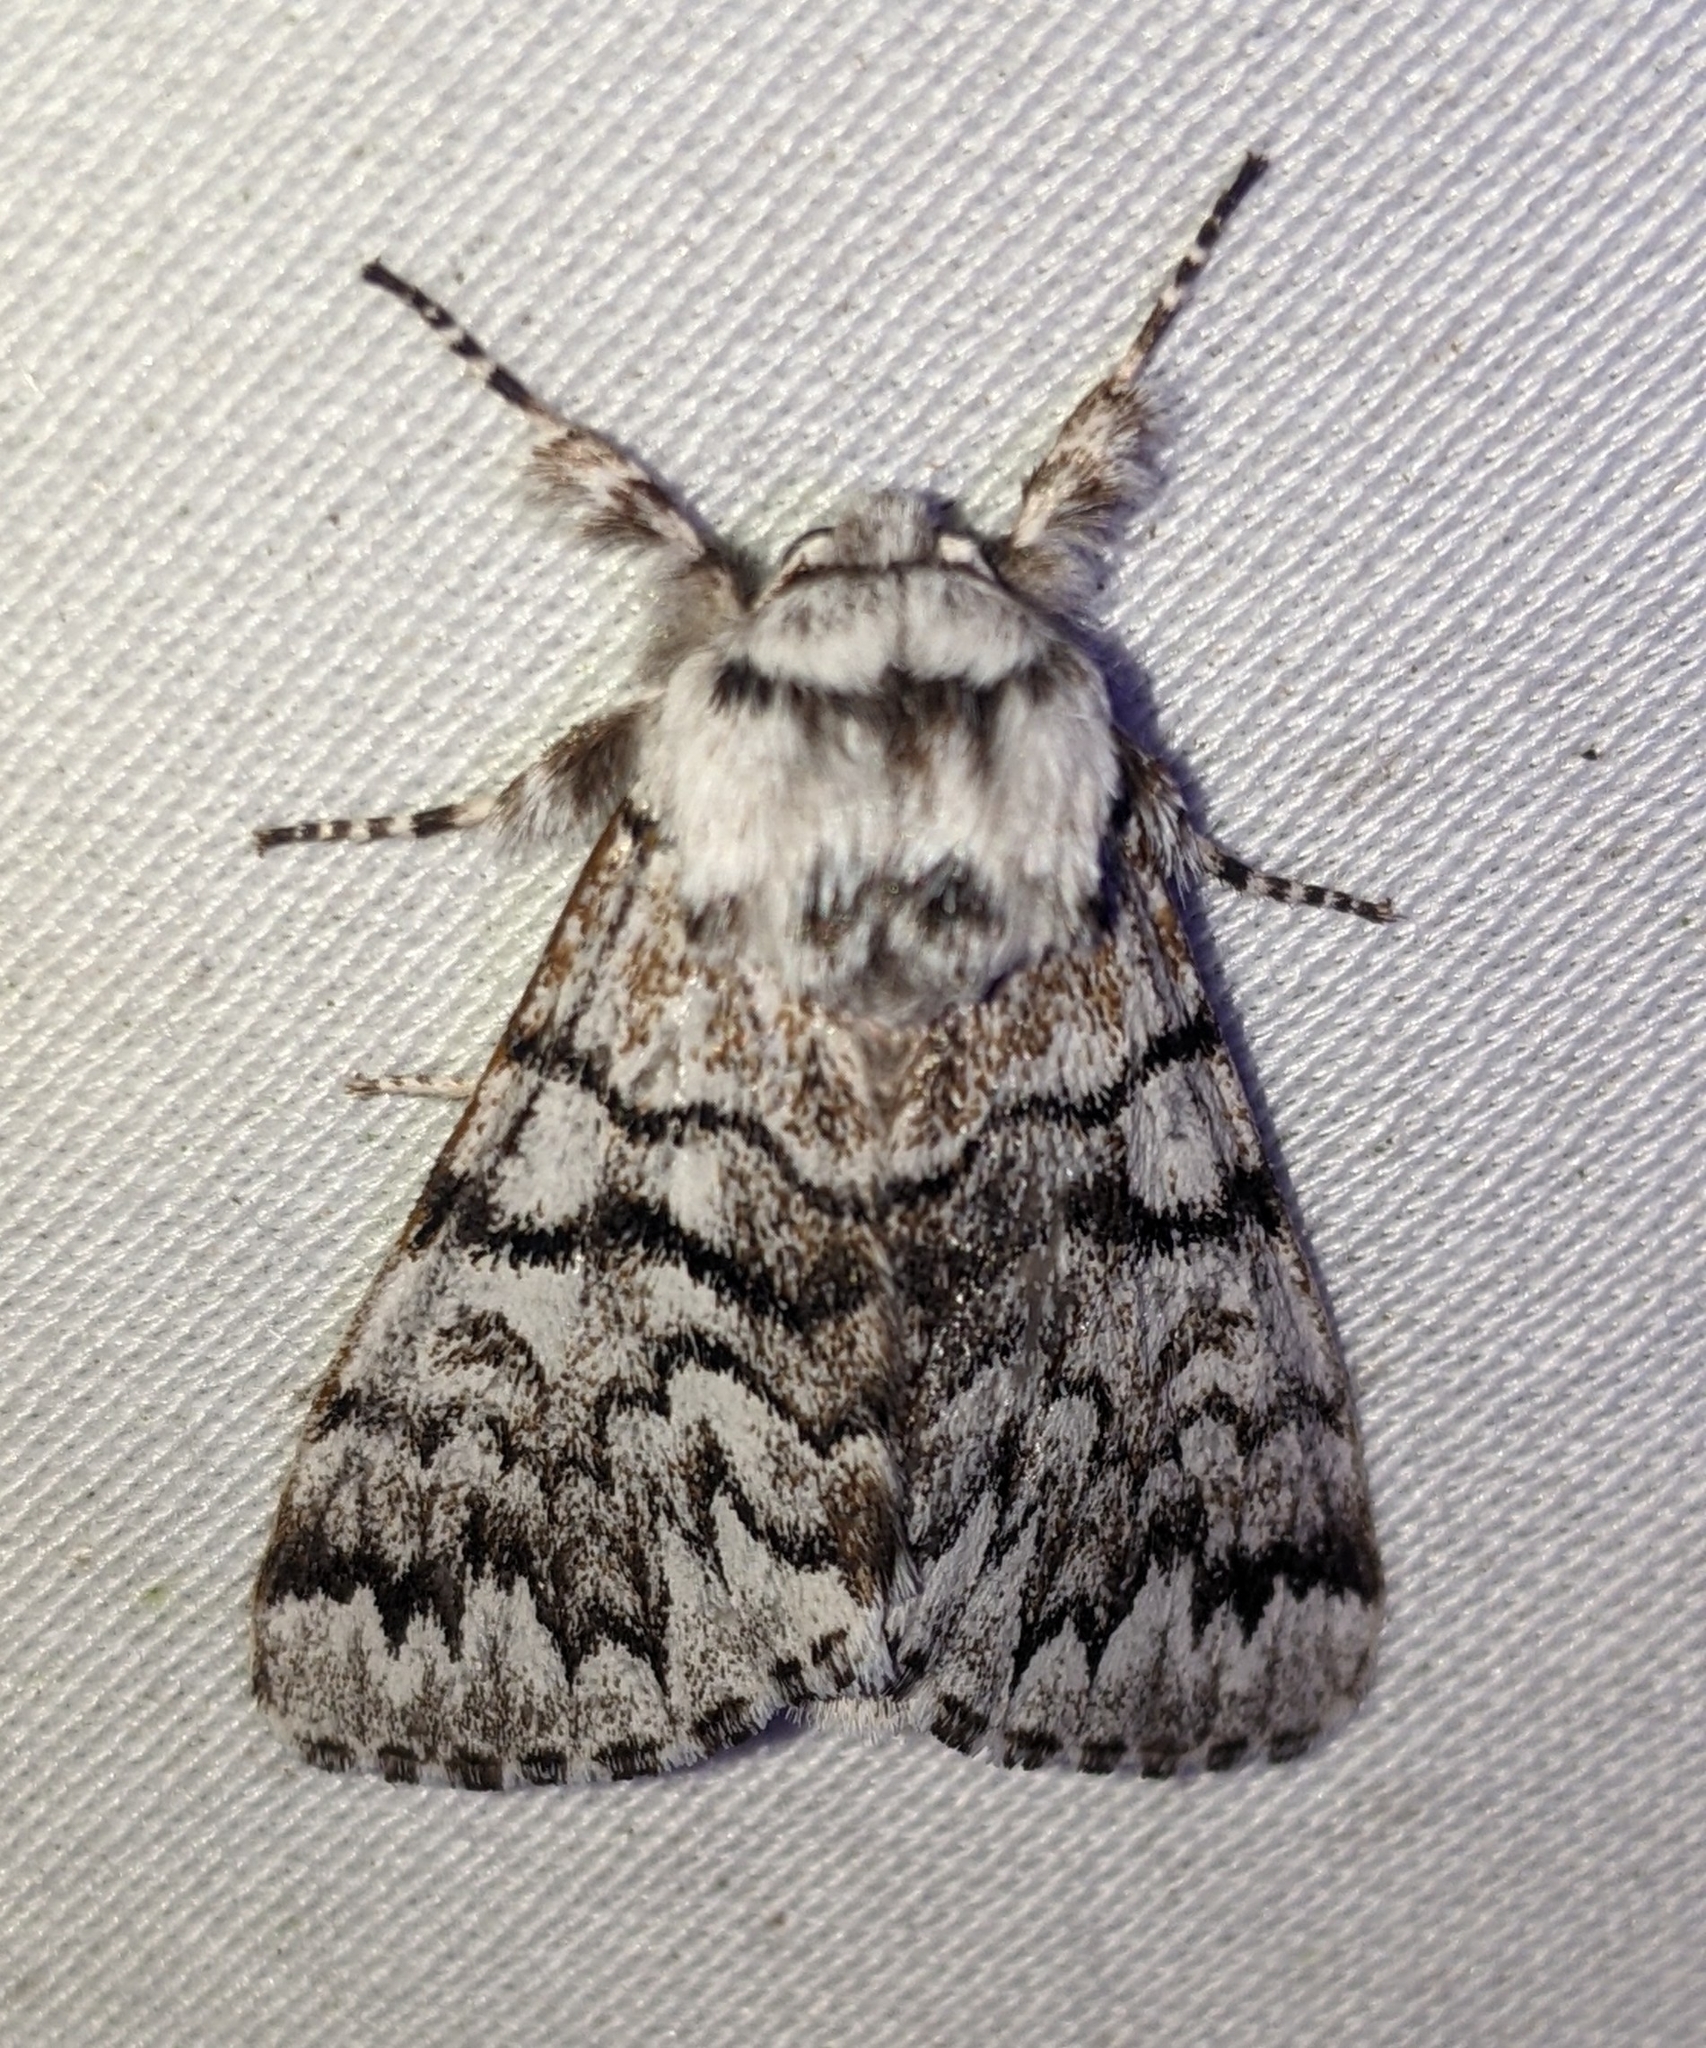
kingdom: Animalia
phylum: Arthropoda
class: Insecta
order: Lepidoptera
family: Noctuidae
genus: Panthea
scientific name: Panthea virginarius
